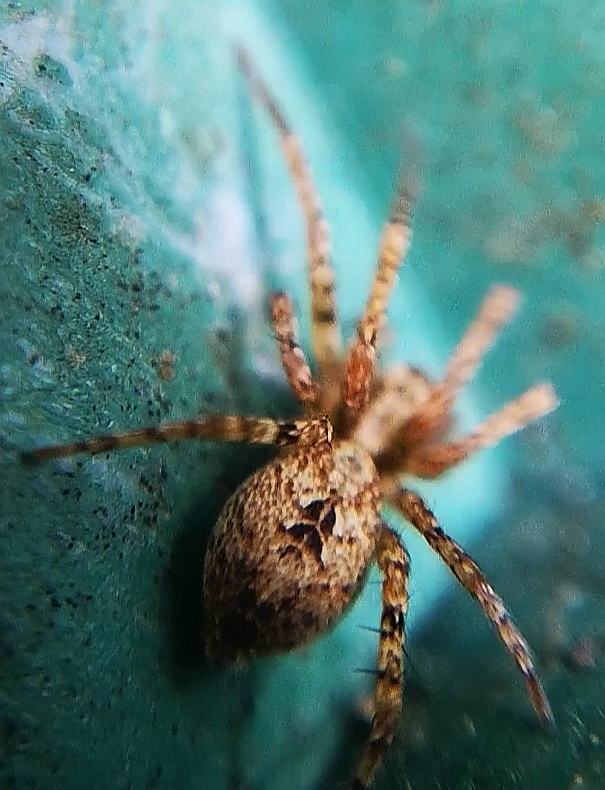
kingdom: Animalia
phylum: Arthropoda
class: Arachnida
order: Araneae
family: Anyphaenidae
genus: Anyphaena
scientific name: Anyphaena accentuata
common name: Buzzing spider
